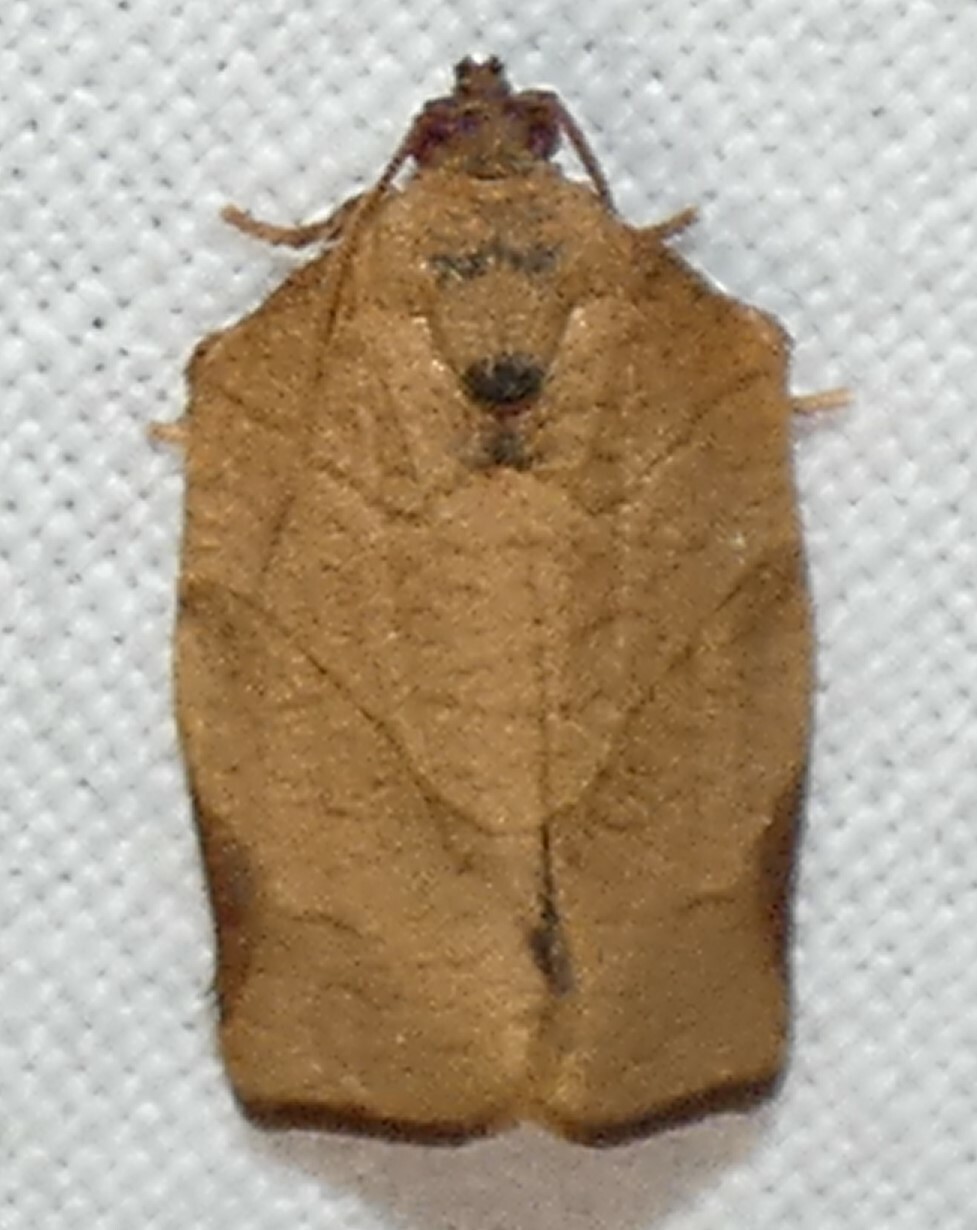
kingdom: Animalia
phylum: Arthropoda
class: Insecta
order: Lepidoptera
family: Tortricidae
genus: Choristoneura
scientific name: Choristoneura rosaceana
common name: Oblique-banded leafroller moth
